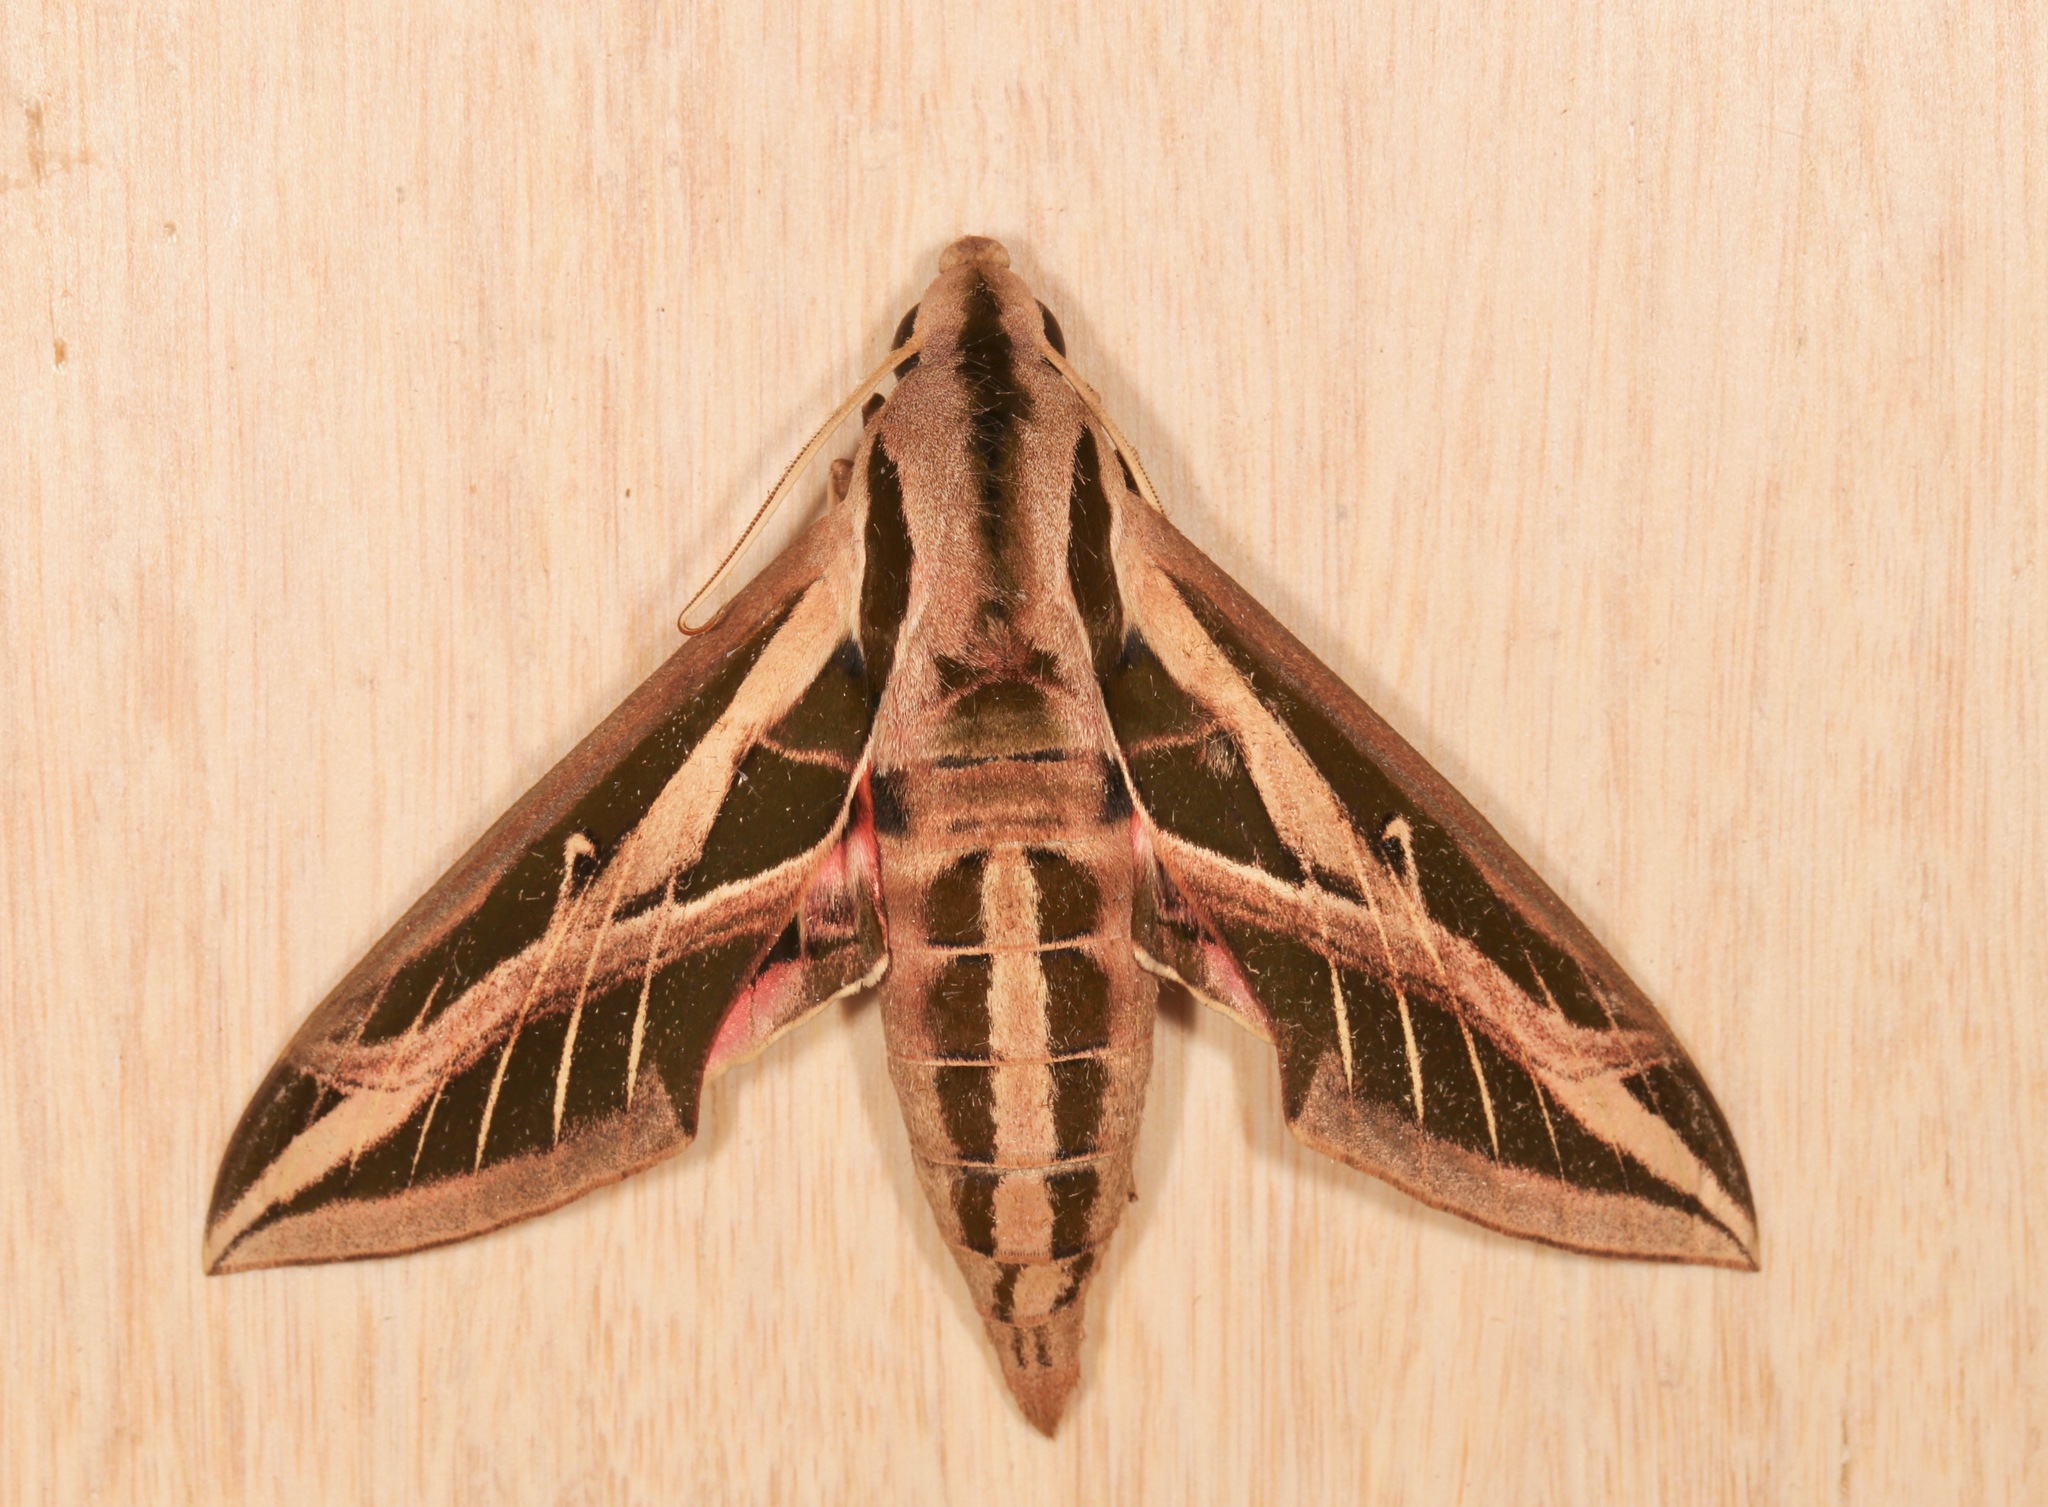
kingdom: Animalia
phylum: Arthropoda
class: Insecta
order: Lepidoptera
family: Sphingidae
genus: Eumorpha
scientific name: Eumorpha fasciatus
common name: Banded sphinx
